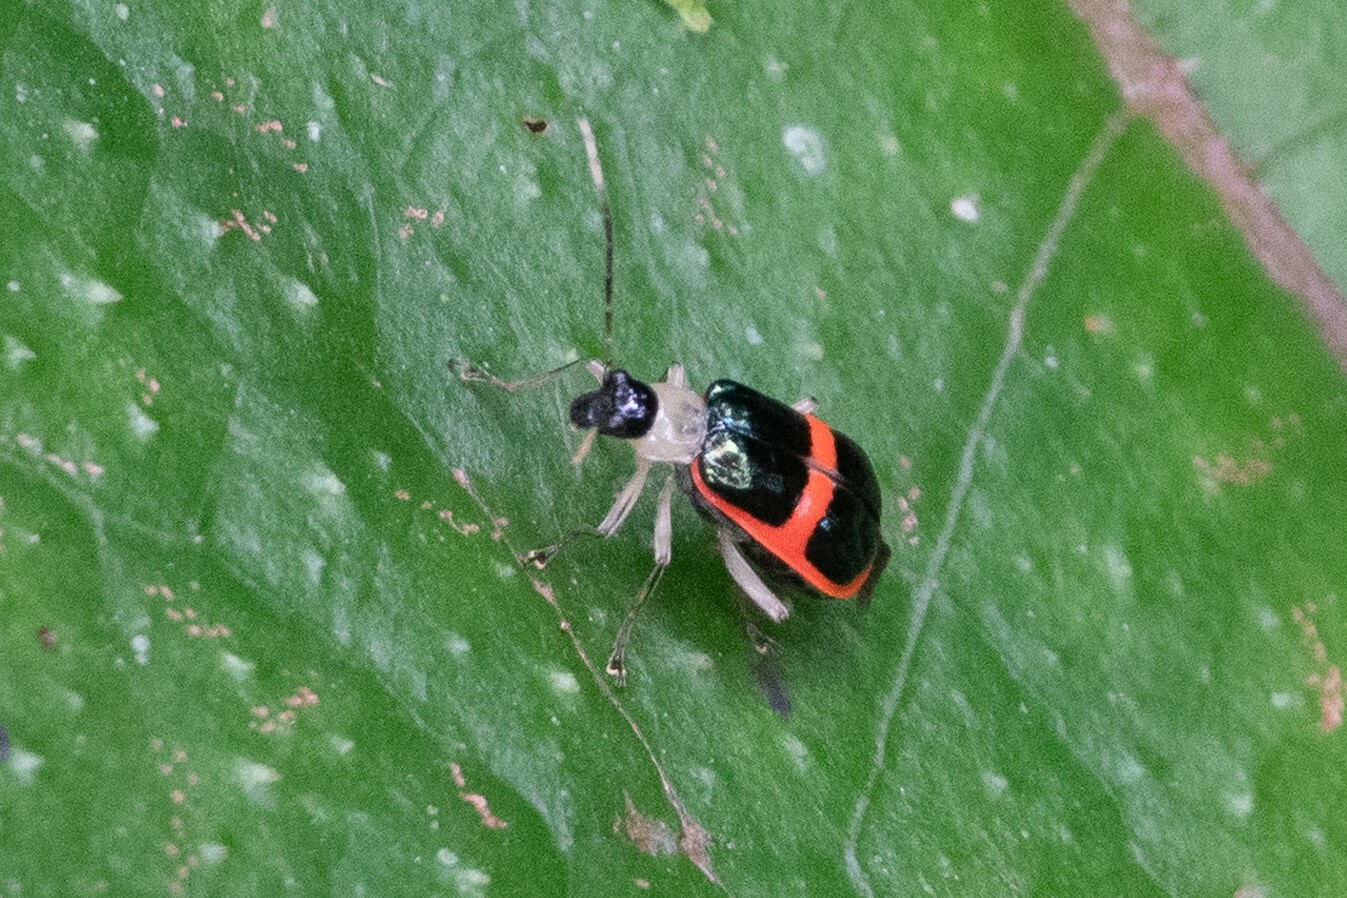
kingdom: Animalia
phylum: Arthropoda
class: Insecta
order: Coleoptera
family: Chrysomelidae
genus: Paratriarius
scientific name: Paratriarius
